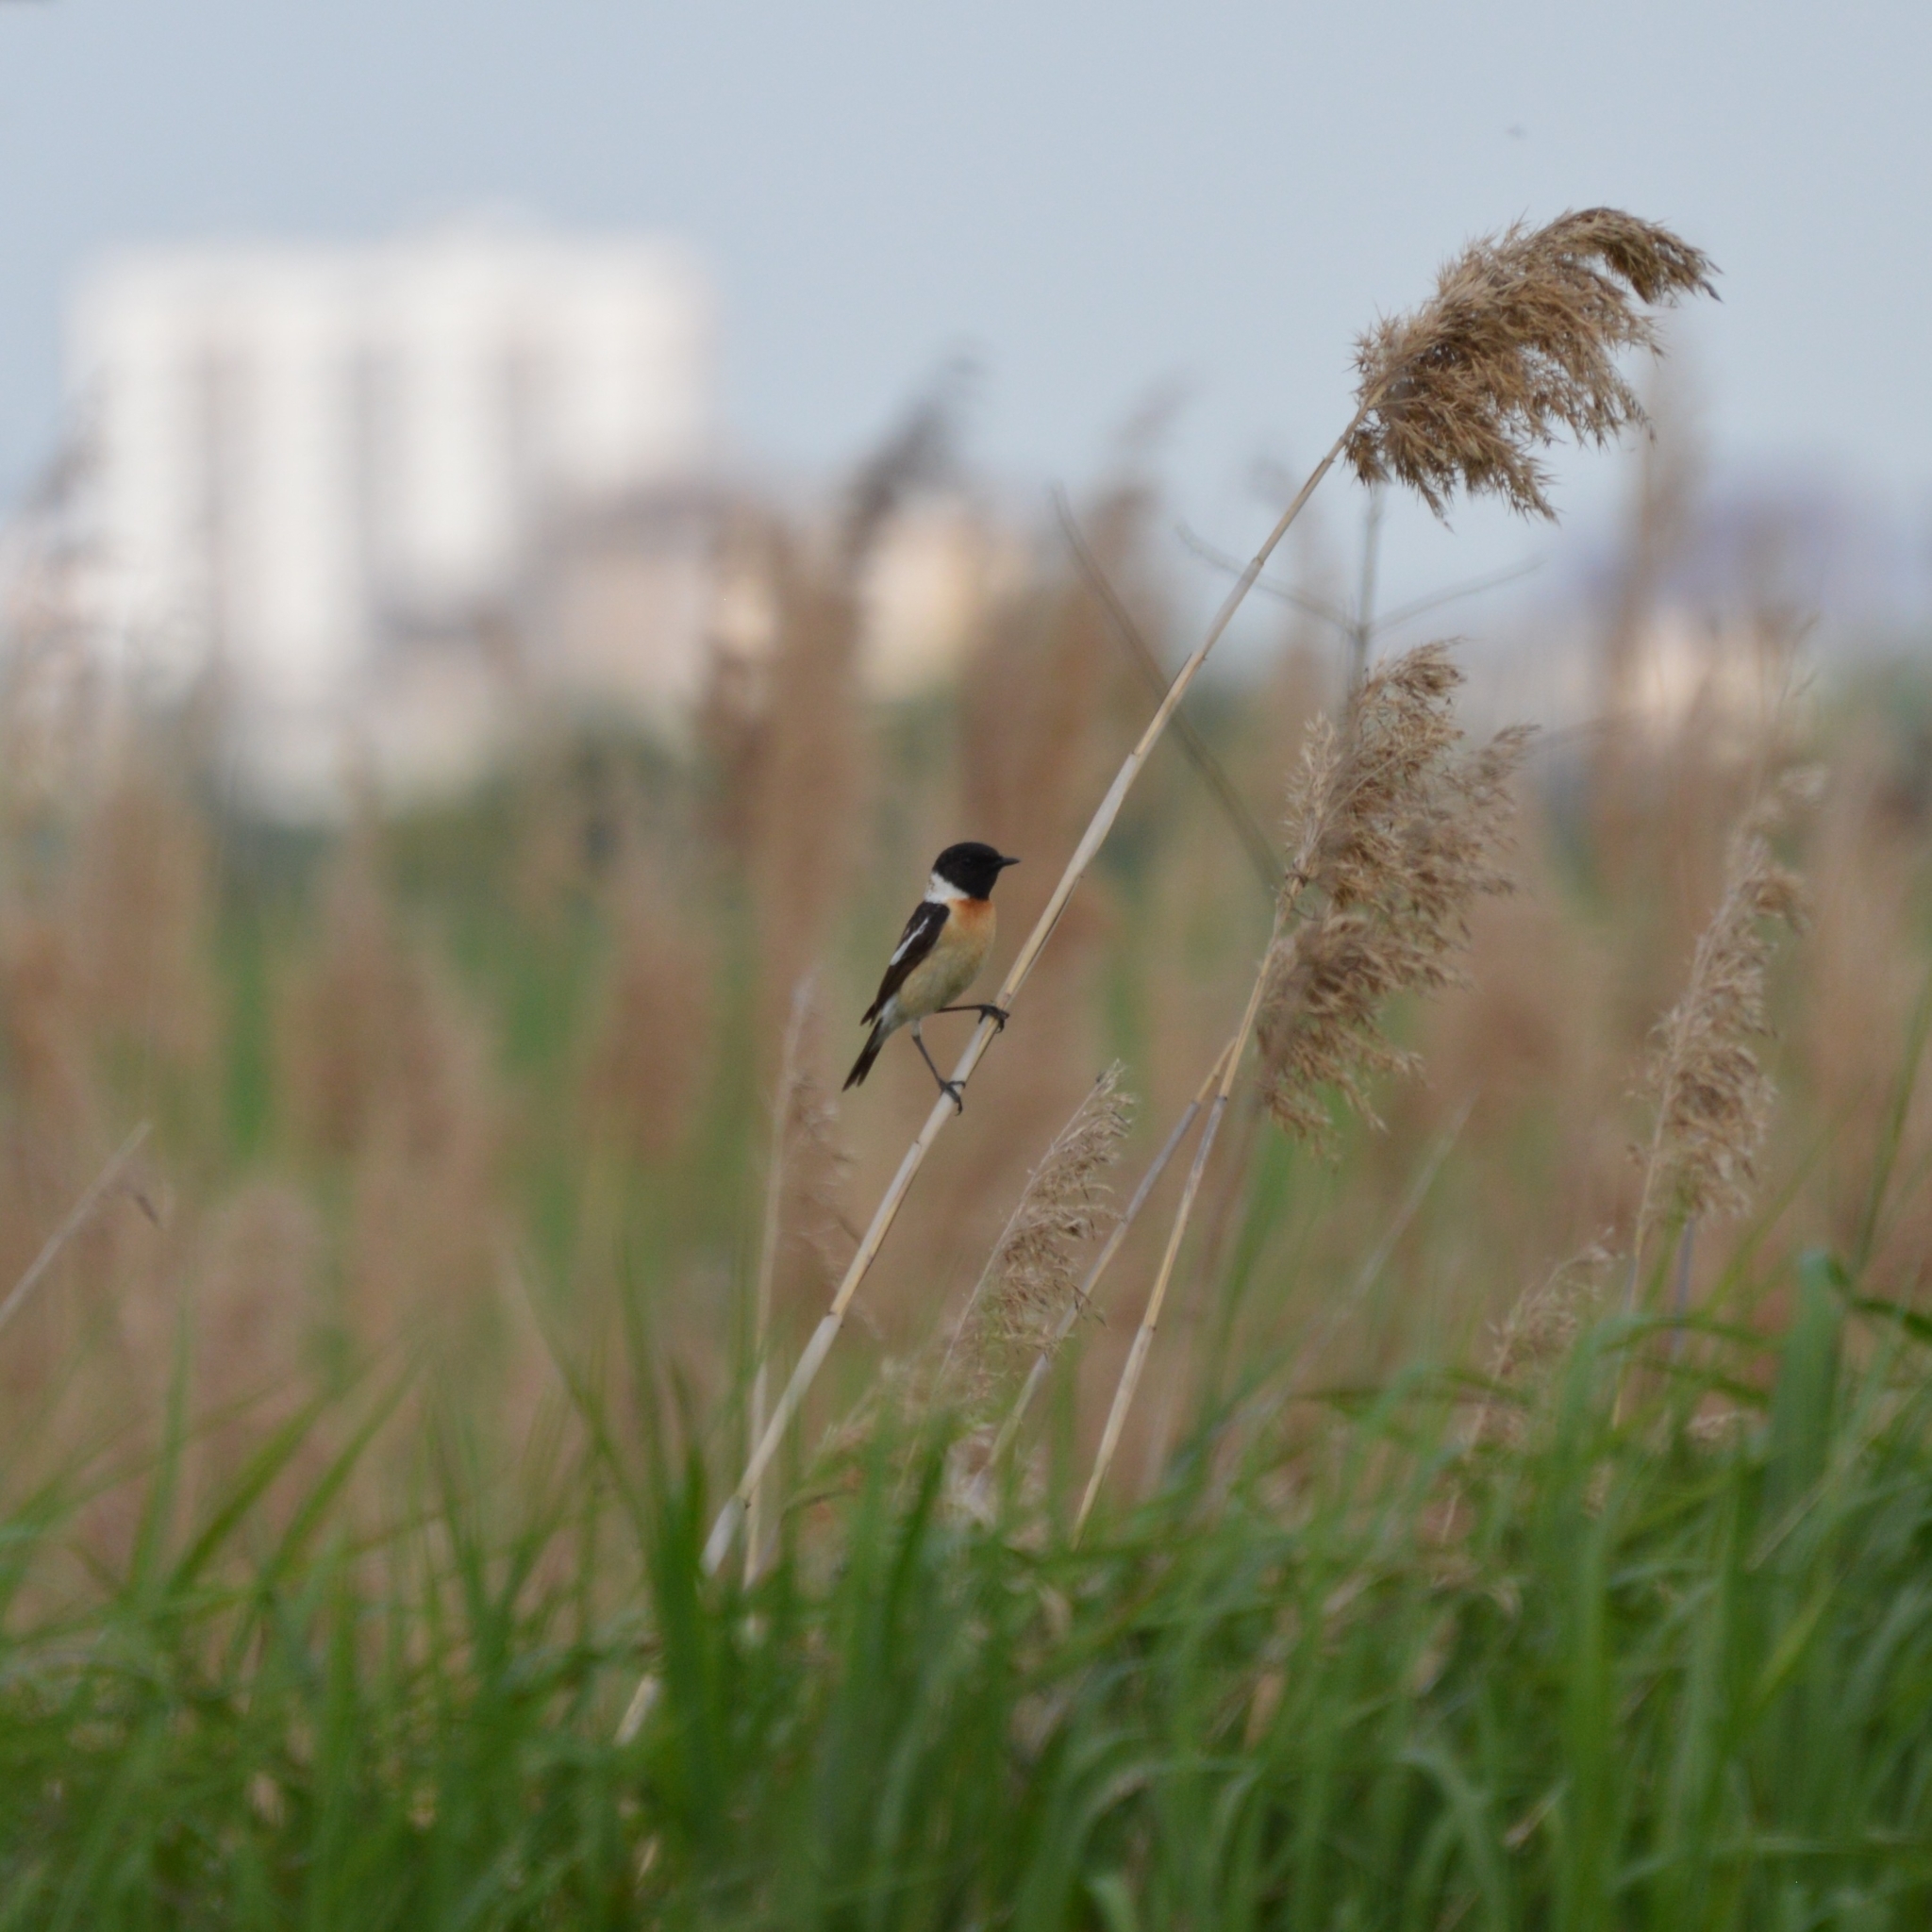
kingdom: Animalia
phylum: Chordata
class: Aves
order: Passeriformes
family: Muscicapidae
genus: Saxicola
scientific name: Saxicola maurus
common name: Siberian stonechat
